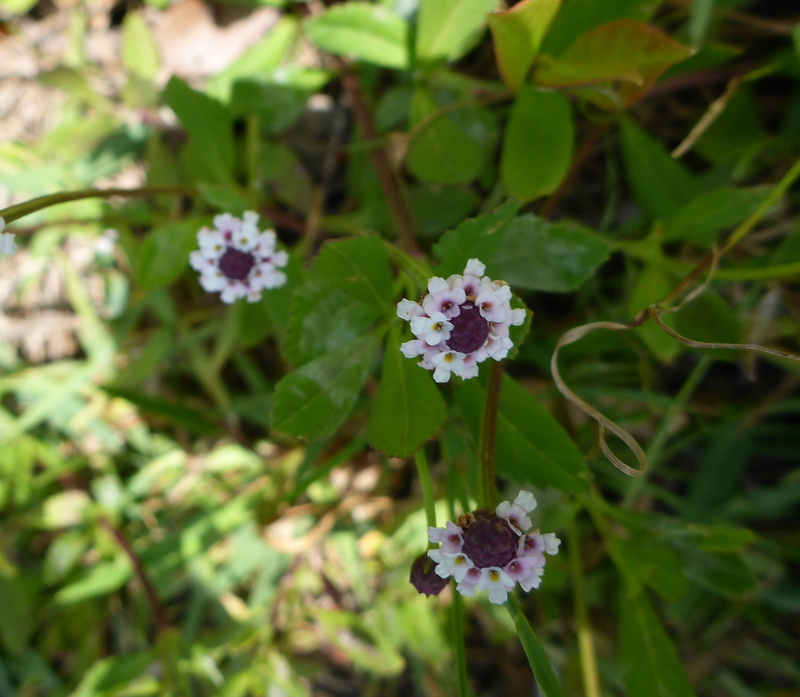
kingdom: Plantae
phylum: Tracheophyta
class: Magnoliopsida
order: Lamiales
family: Verbenaceae
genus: Phyla
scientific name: Phyla nodiflora
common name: Frogfruit
